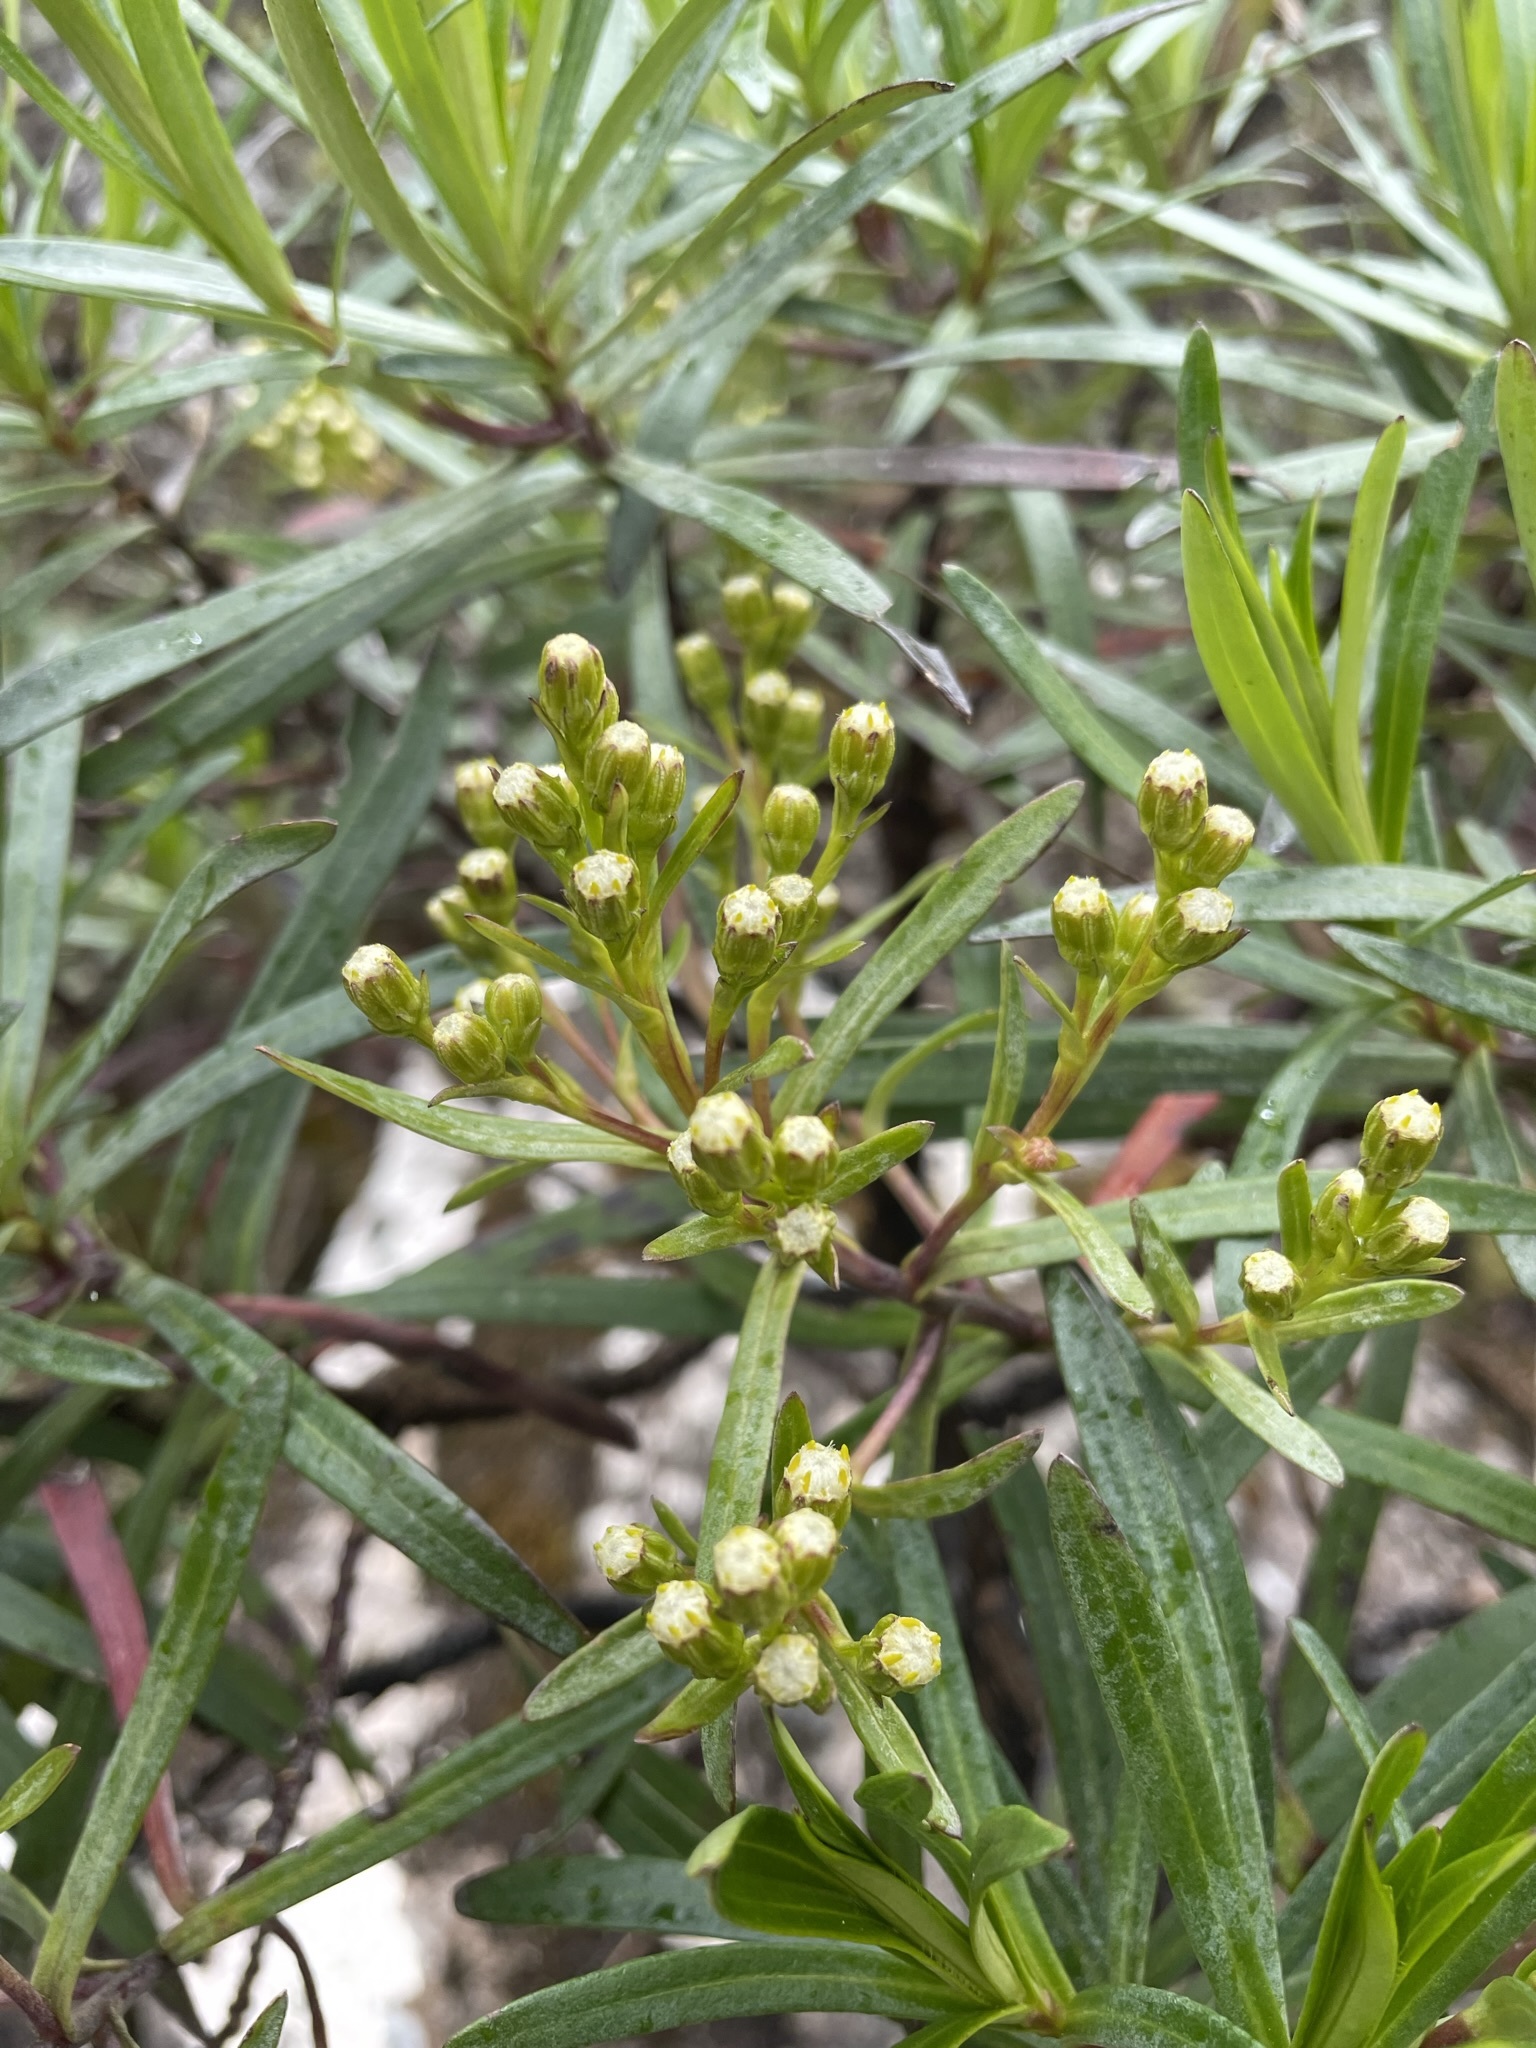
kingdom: Plantae
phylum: Tracheophyta
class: Magnoliopsida
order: Asterales
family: Asteraceae
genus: Centropappus
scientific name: Centropappus brunonis
